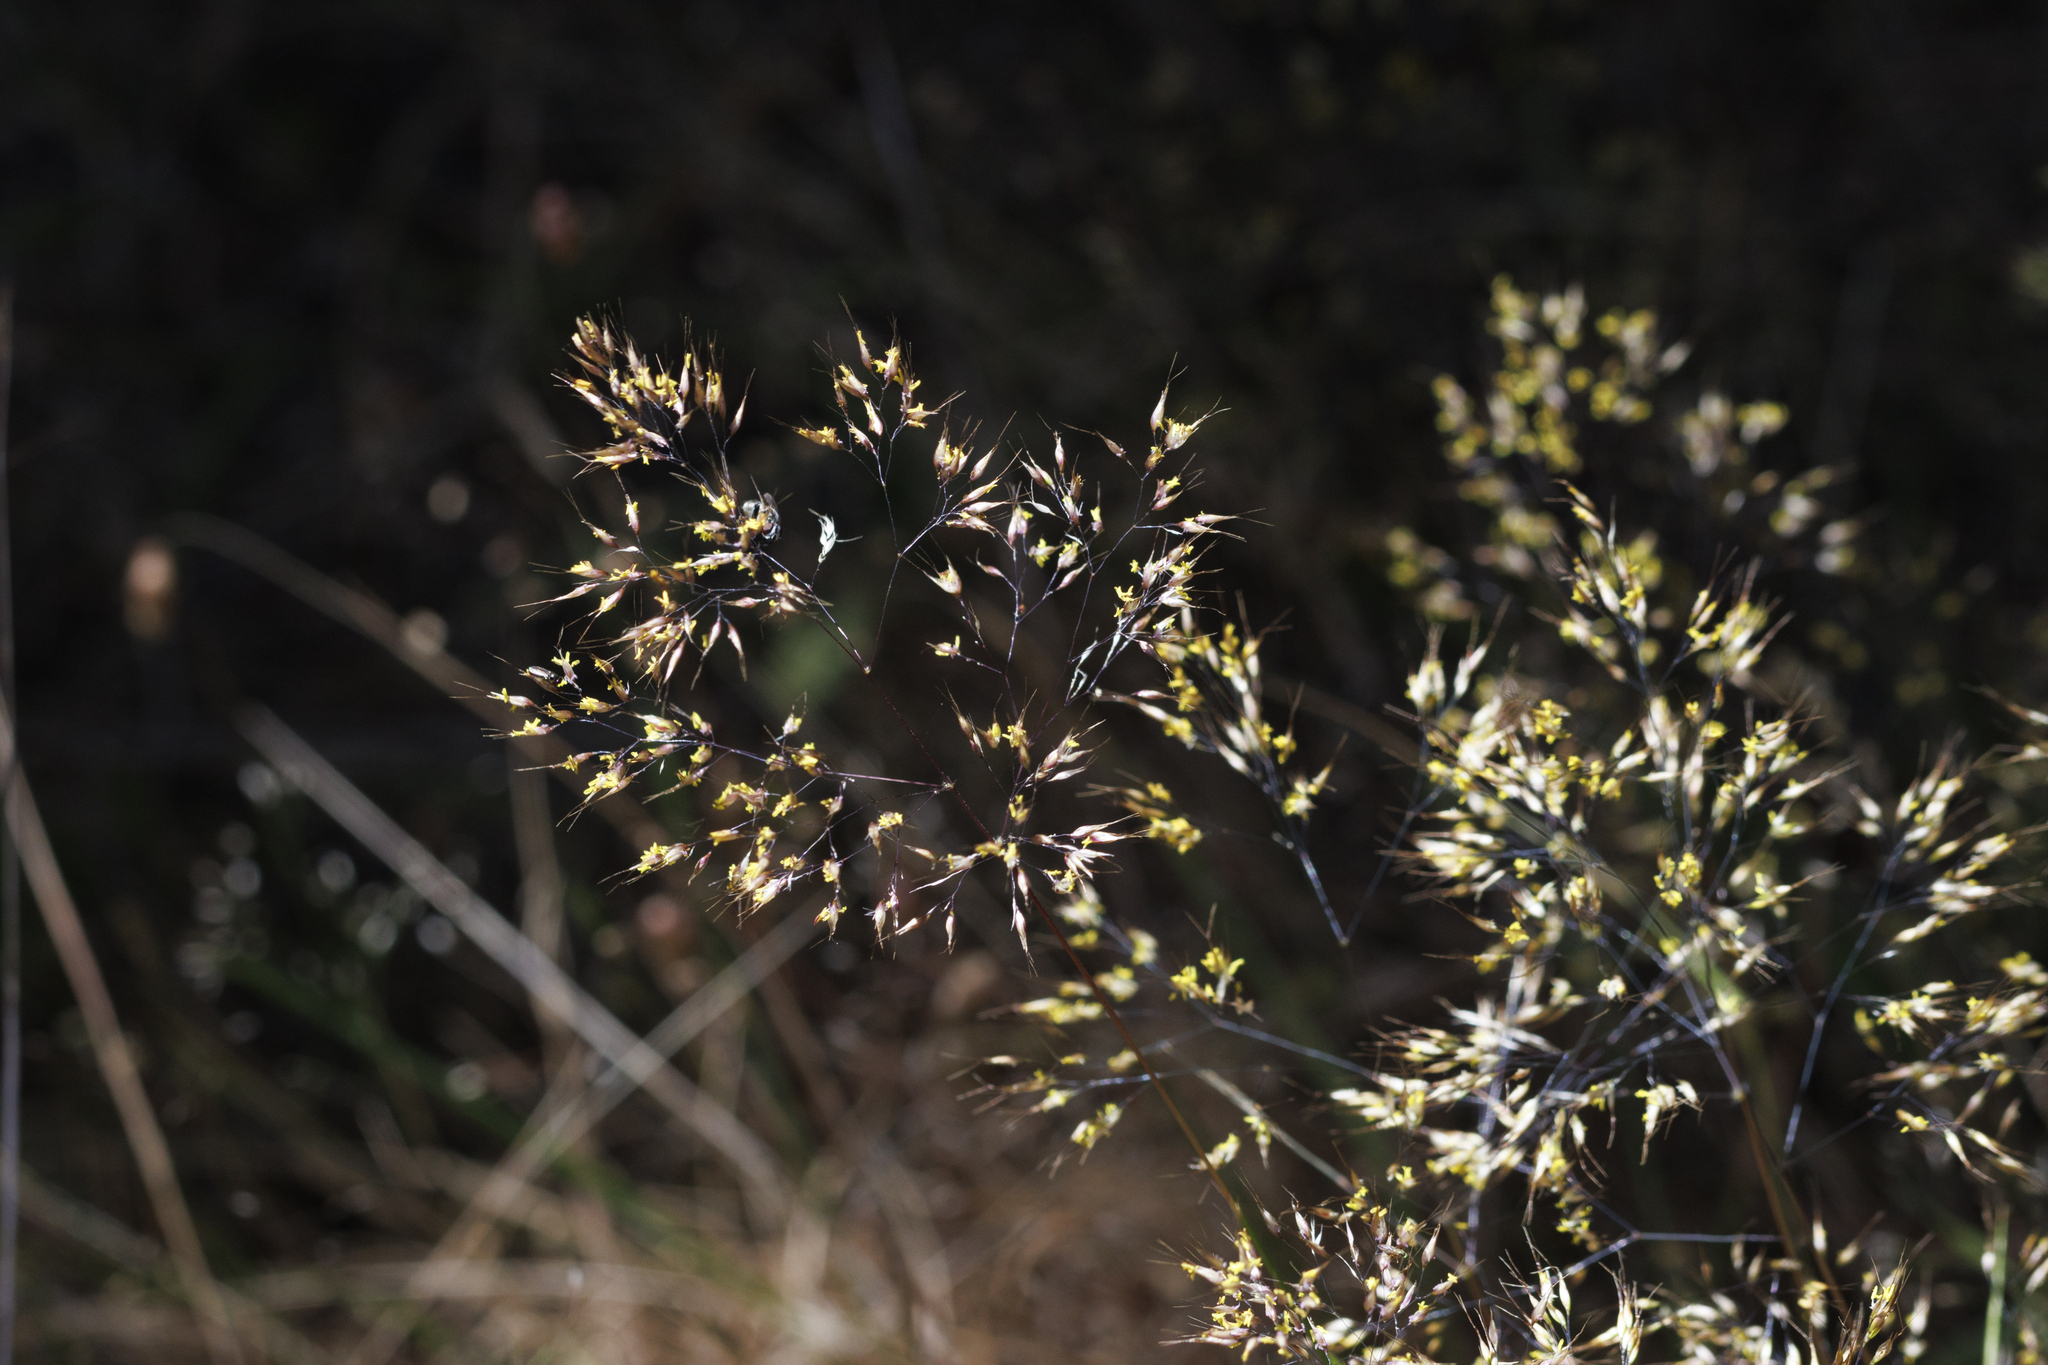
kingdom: Plantae
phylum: Tracheophyta
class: Liliopsida
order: Poales
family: Poaceae
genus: Pentameris
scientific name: Pentameris pallida
